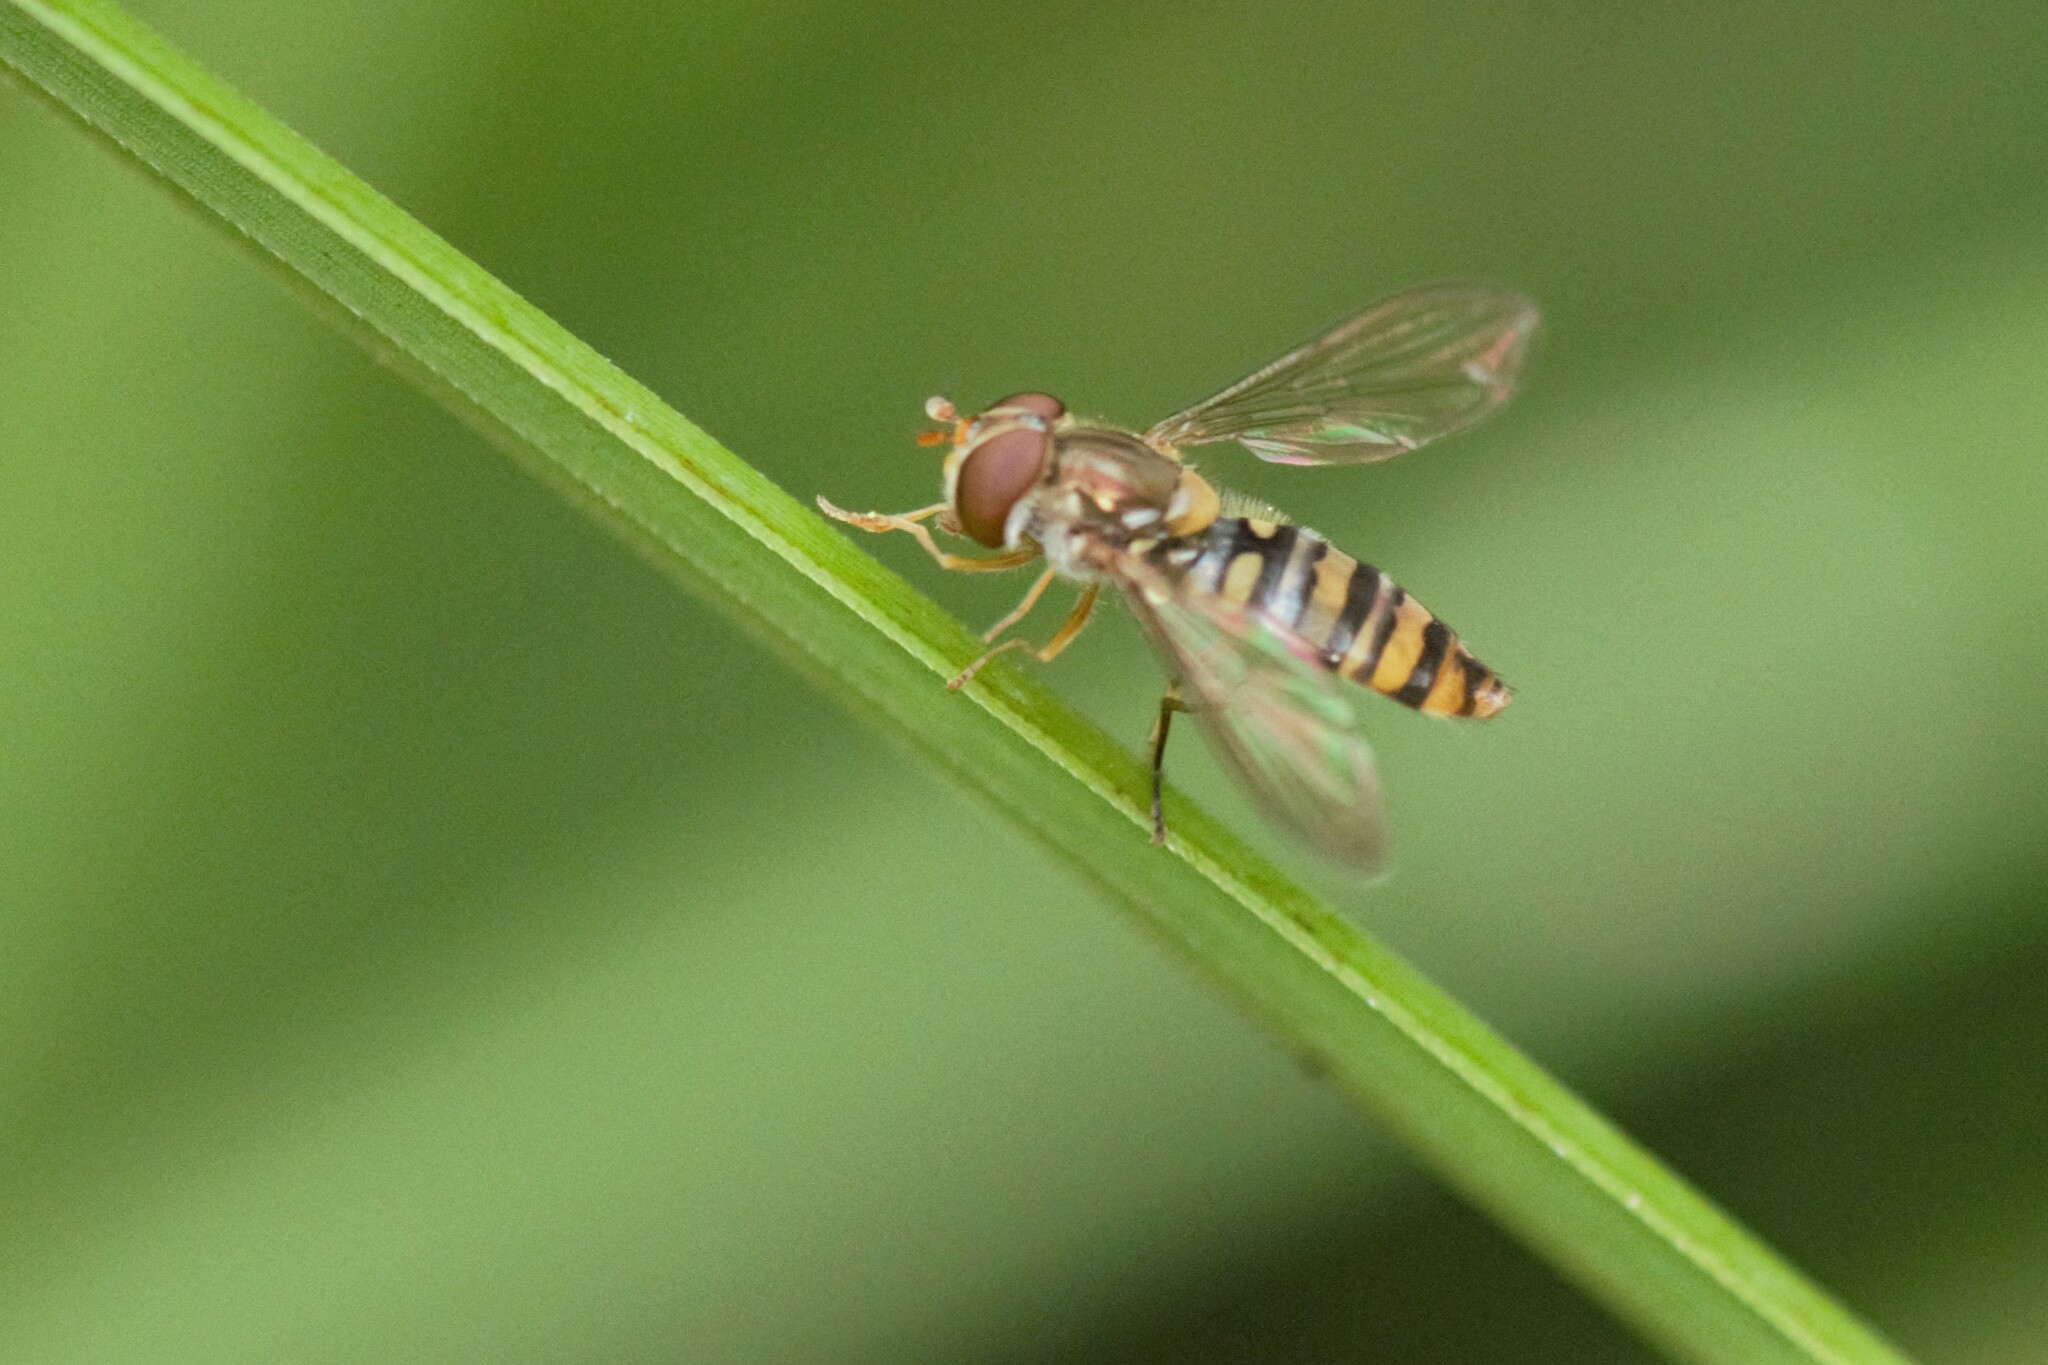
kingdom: Animalia
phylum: Arthropoda
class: Insecta
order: Diptera
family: Syrphidae
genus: Episyrphus
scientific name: Episyrphus balteatus
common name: Marmalade hoverfly
